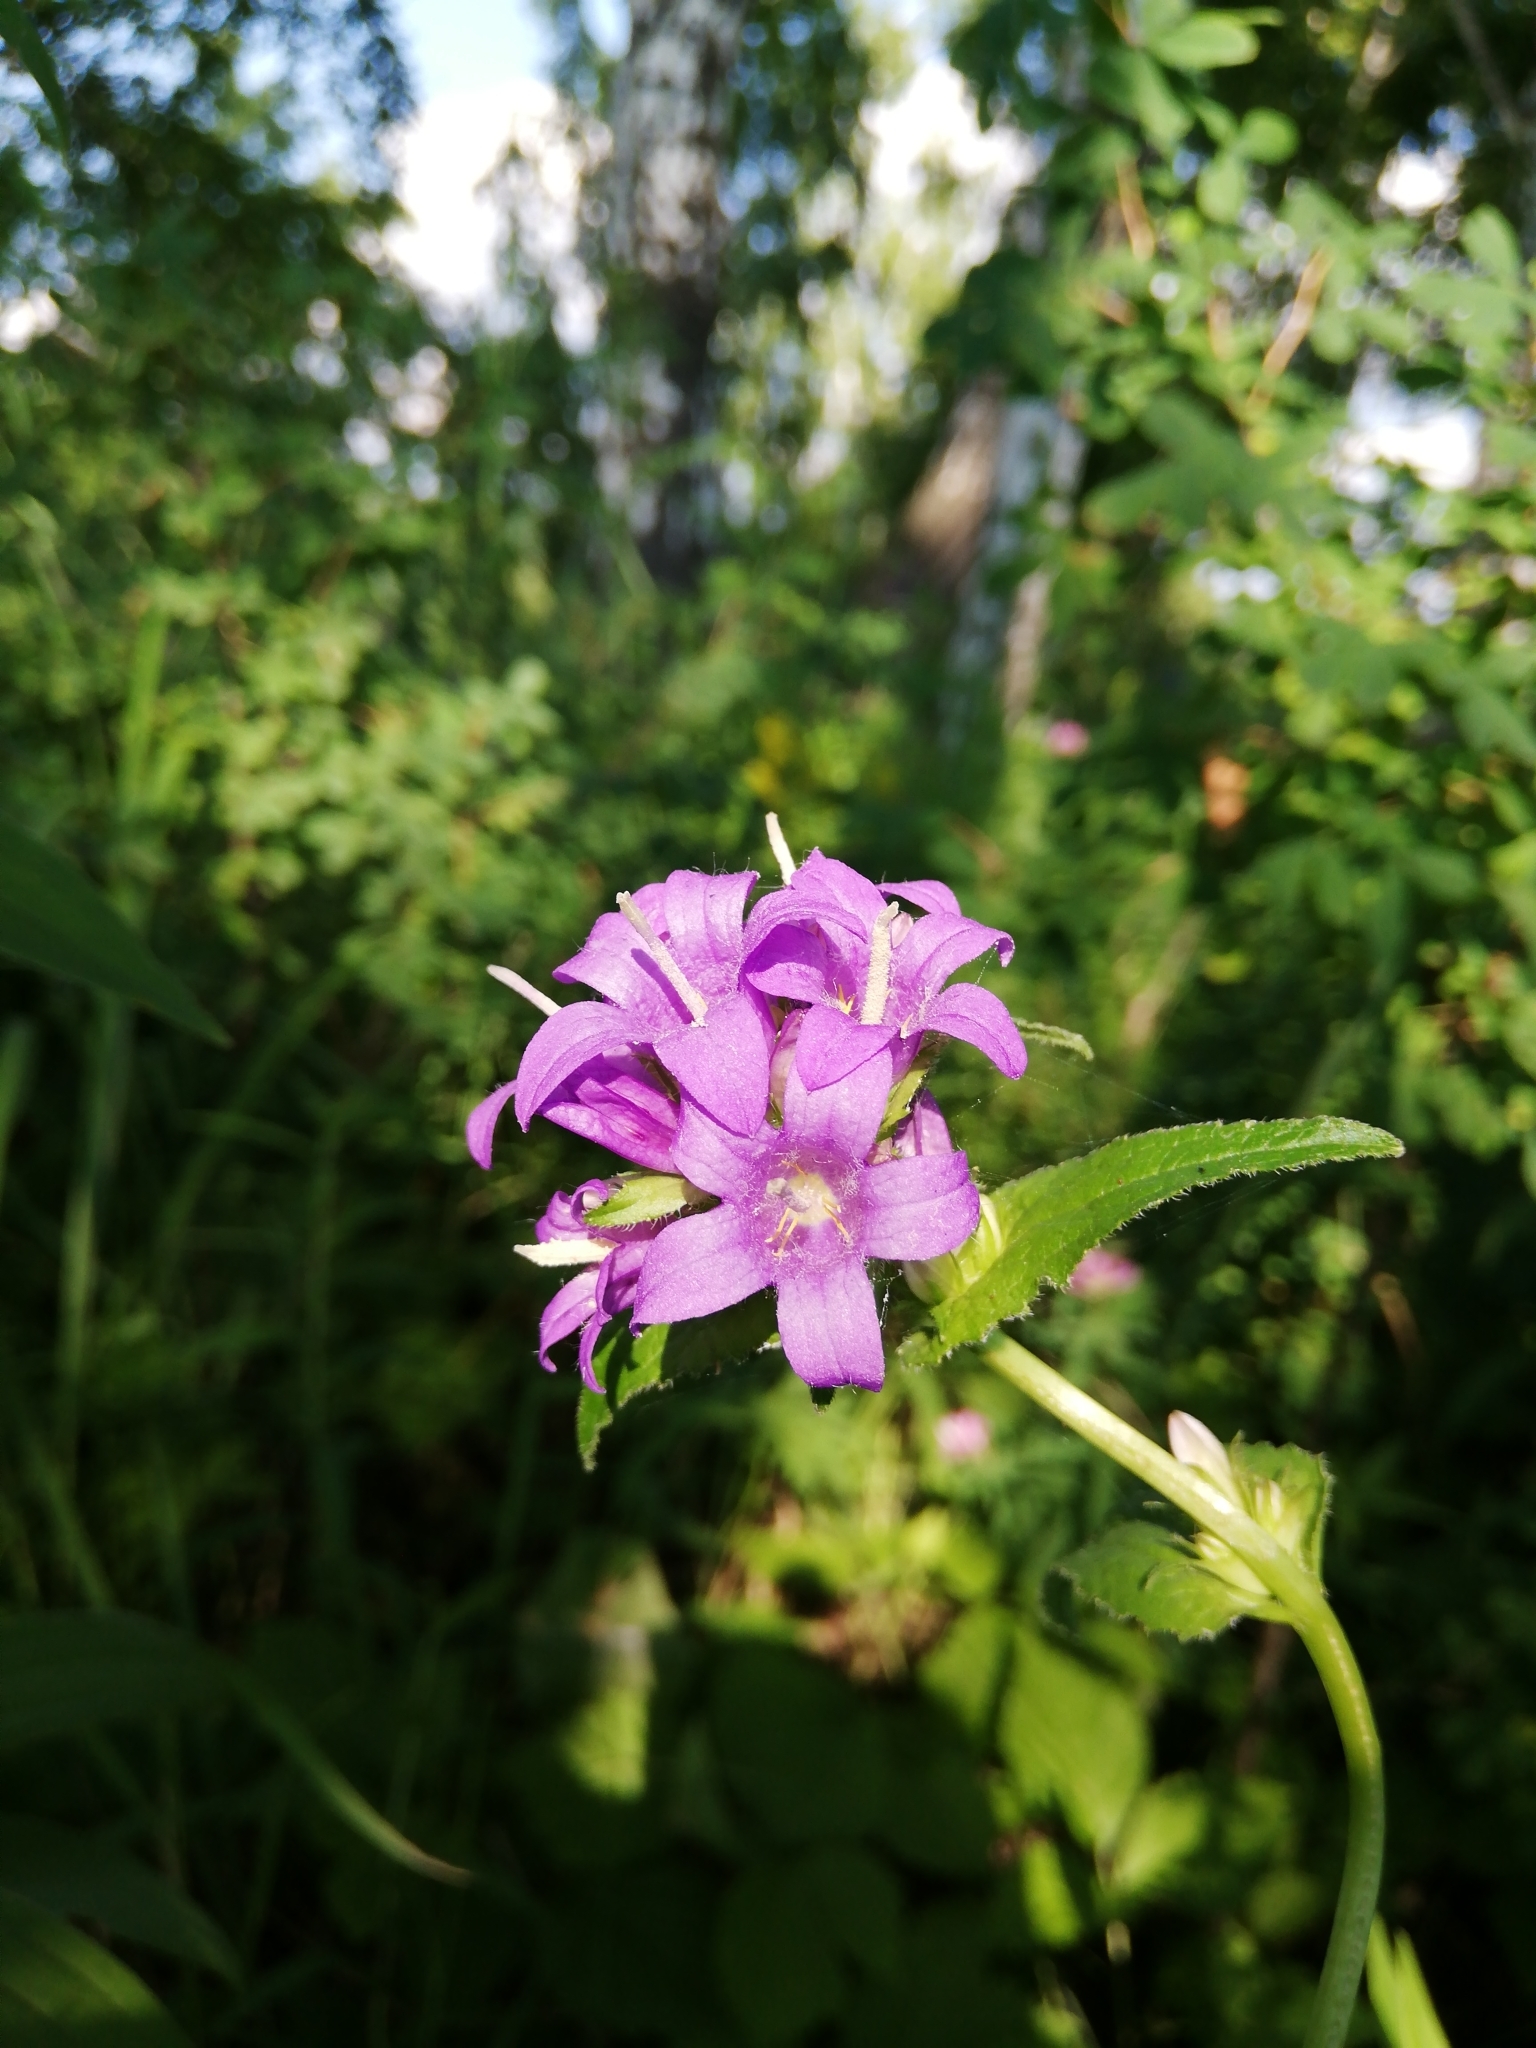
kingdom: Plantae
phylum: Tracheophyta
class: Magnoliopsida
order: Asterales
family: Campanulaceae
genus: Campanula
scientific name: Campanula glomerata
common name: Clustered bellflower
